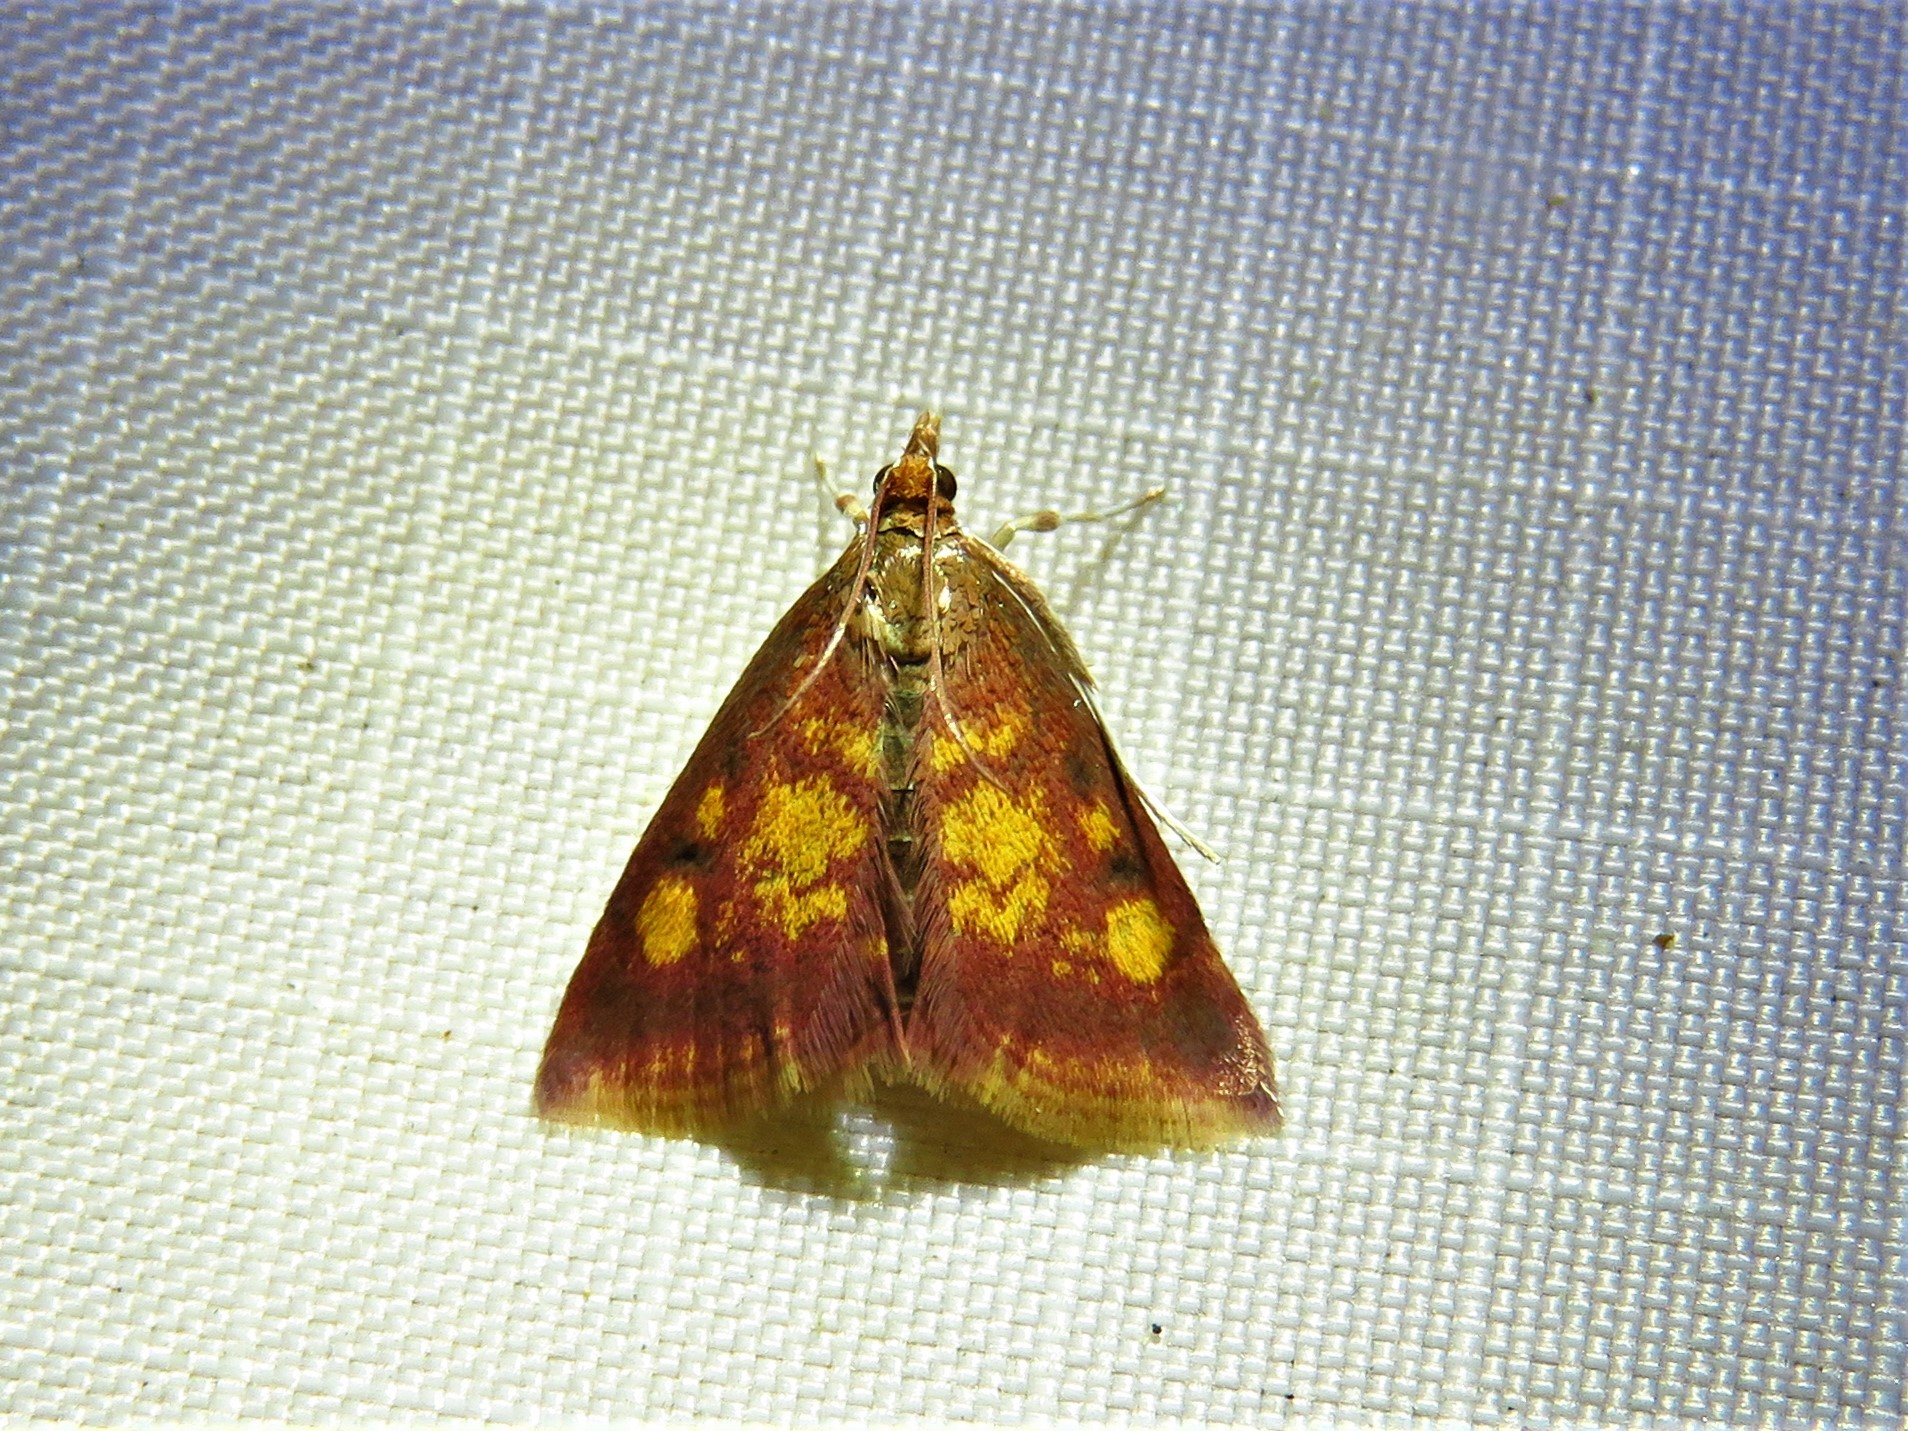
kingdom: Animalia
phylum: Arthropoda
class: Insecta
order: Lepidoptera
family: Crambidae
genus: Pyrausta
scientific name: Pyrausta acrionalis
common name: Mint-loving pyrausta moth
